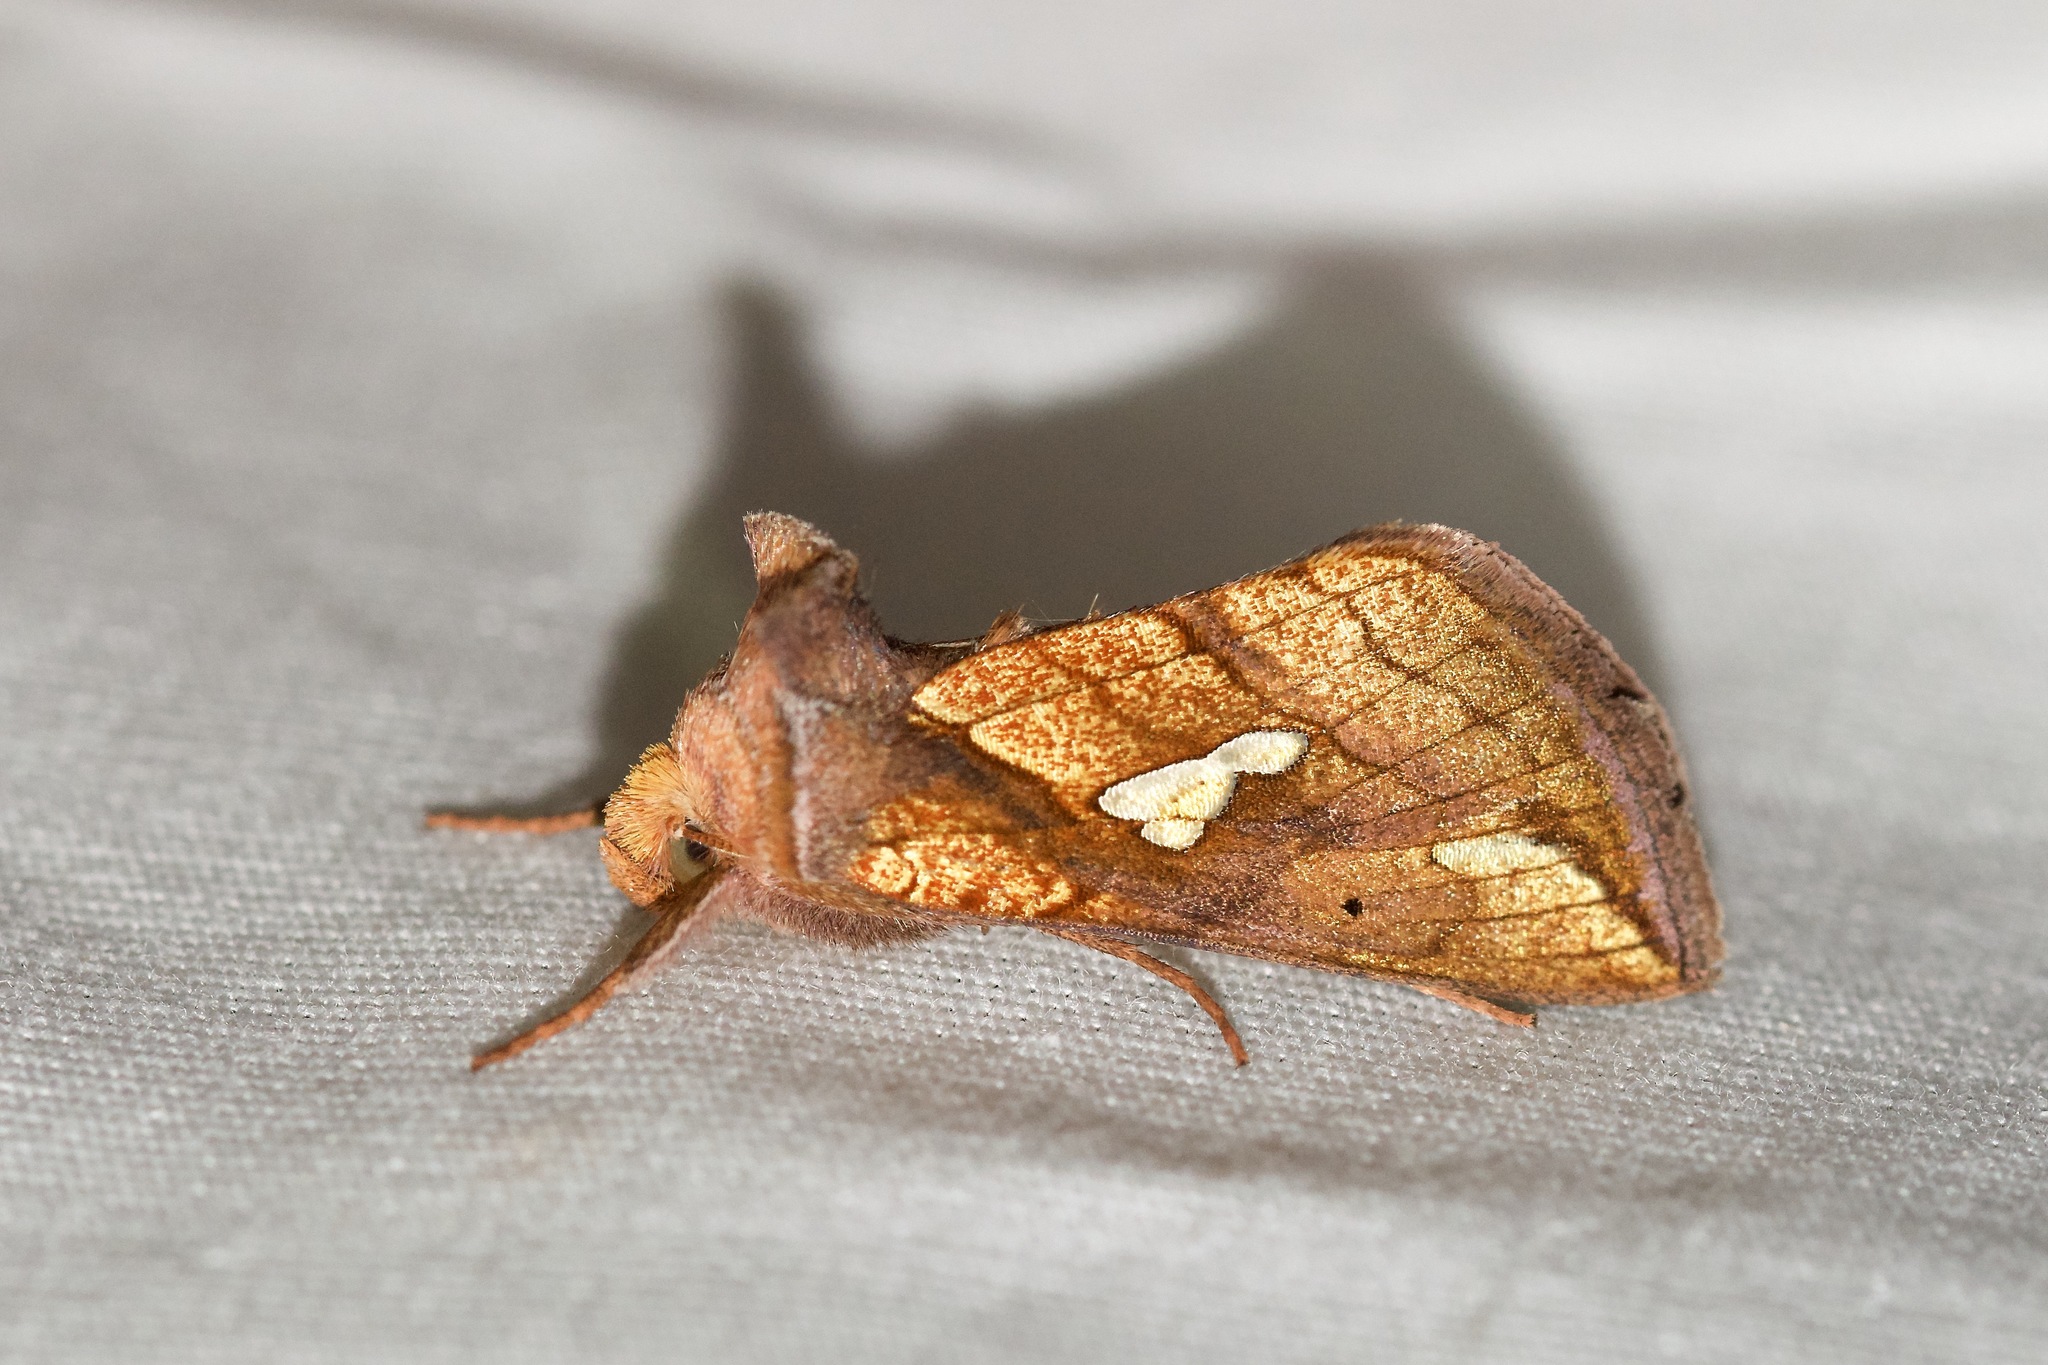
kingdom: Animalia
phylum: Arthropoda
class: Insecta
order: Lepidoptera
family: Noctuidae
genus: Plusia
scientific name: Plusia putnami
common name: Lempke's gold spot
